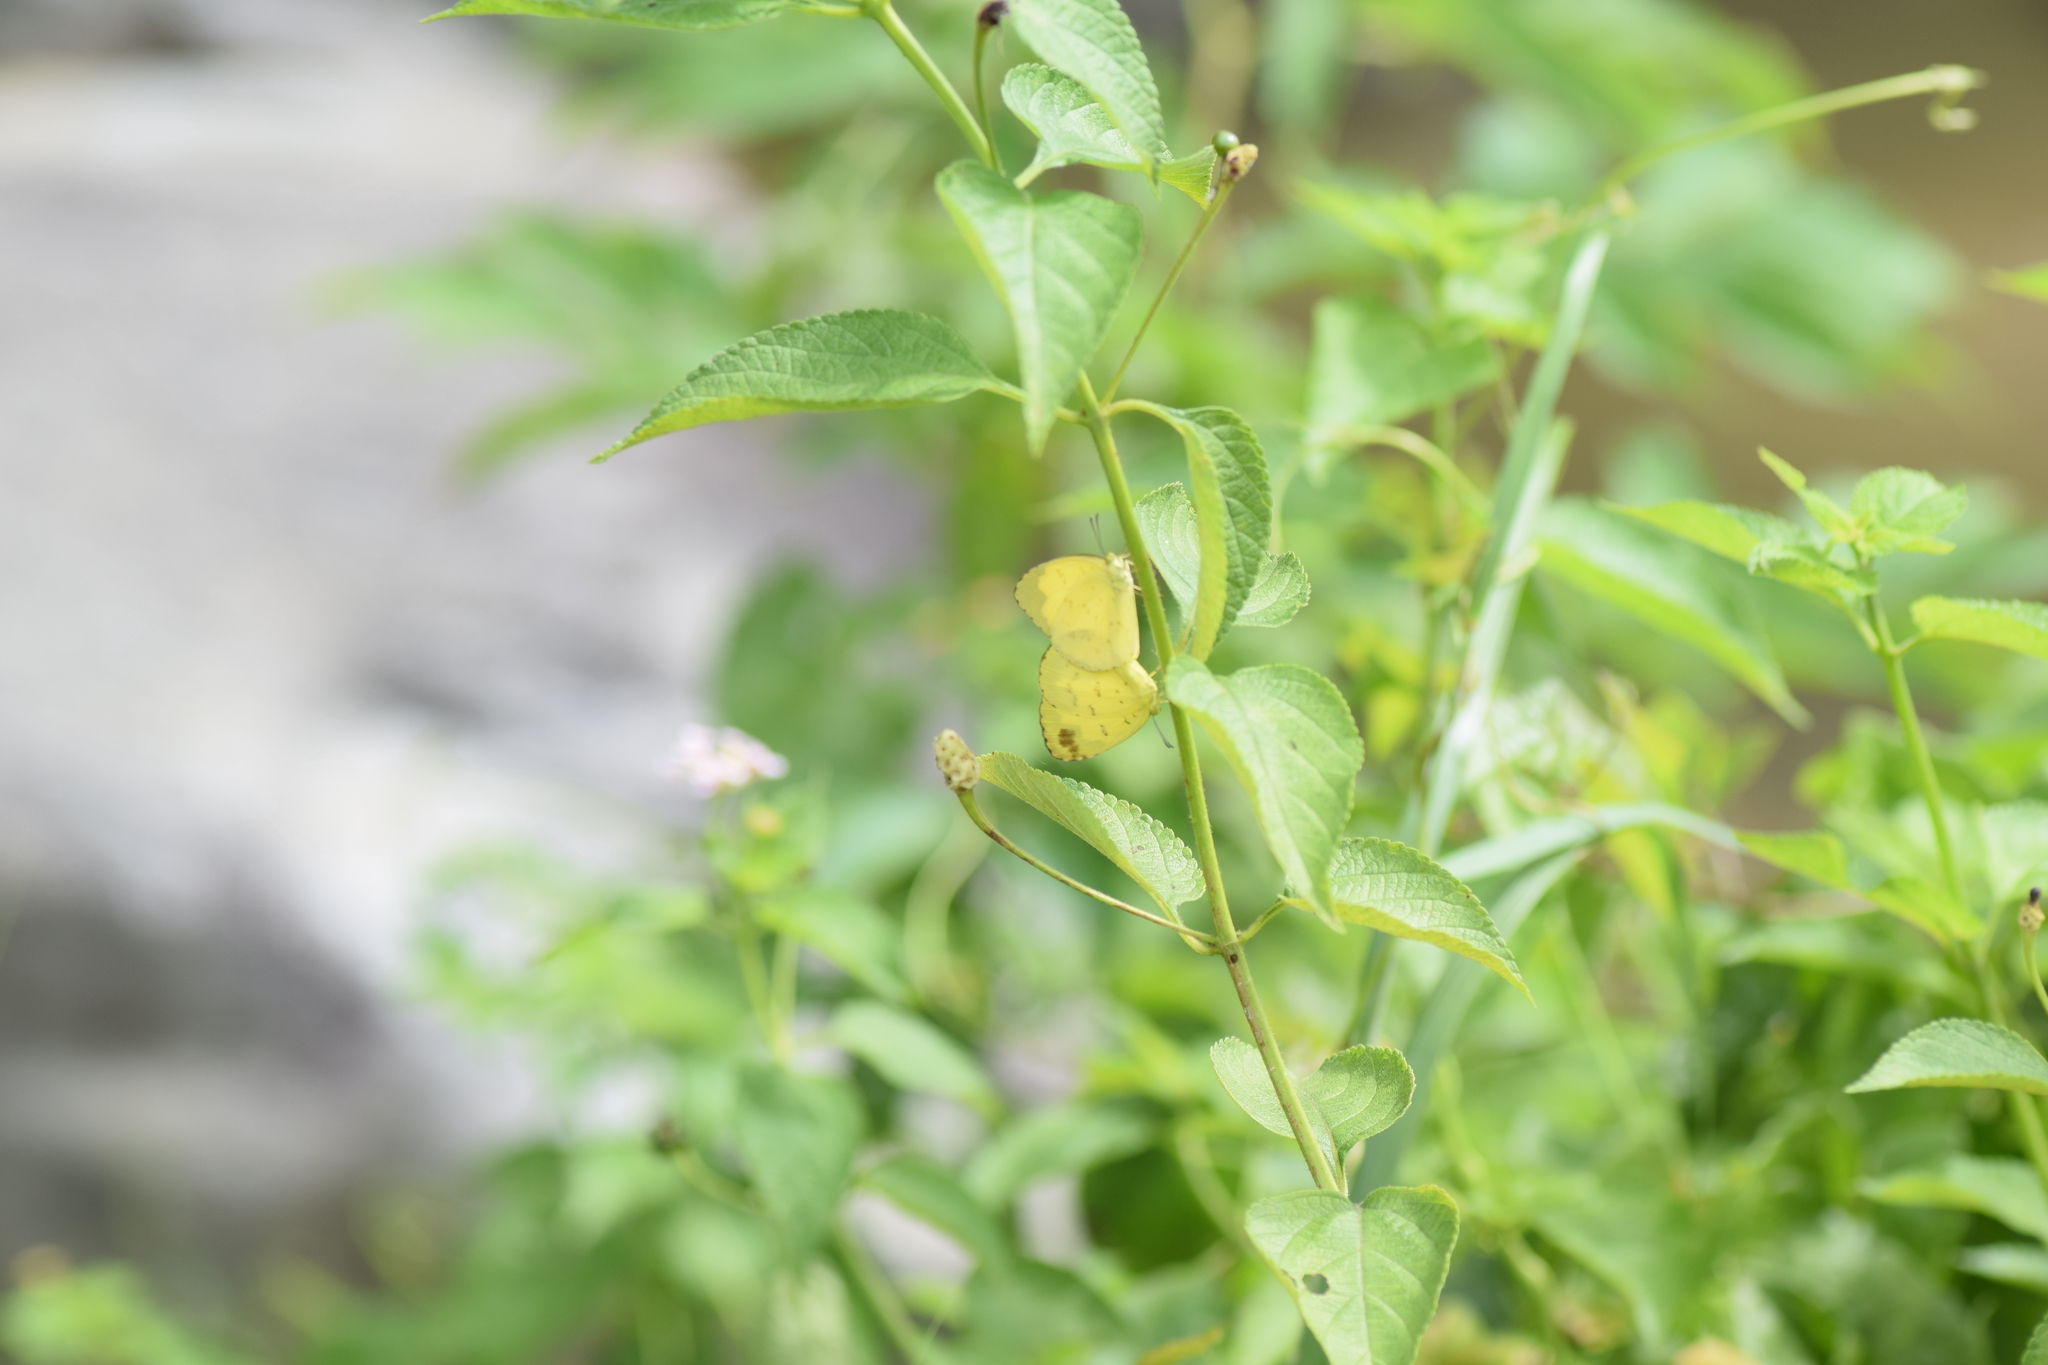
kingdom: Animalia
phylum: Arthropoda
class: Insecta
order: Lepidoptera
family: Pieridae
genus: Eurema
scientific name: Eurema hecabe
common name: Pale grass yellow
